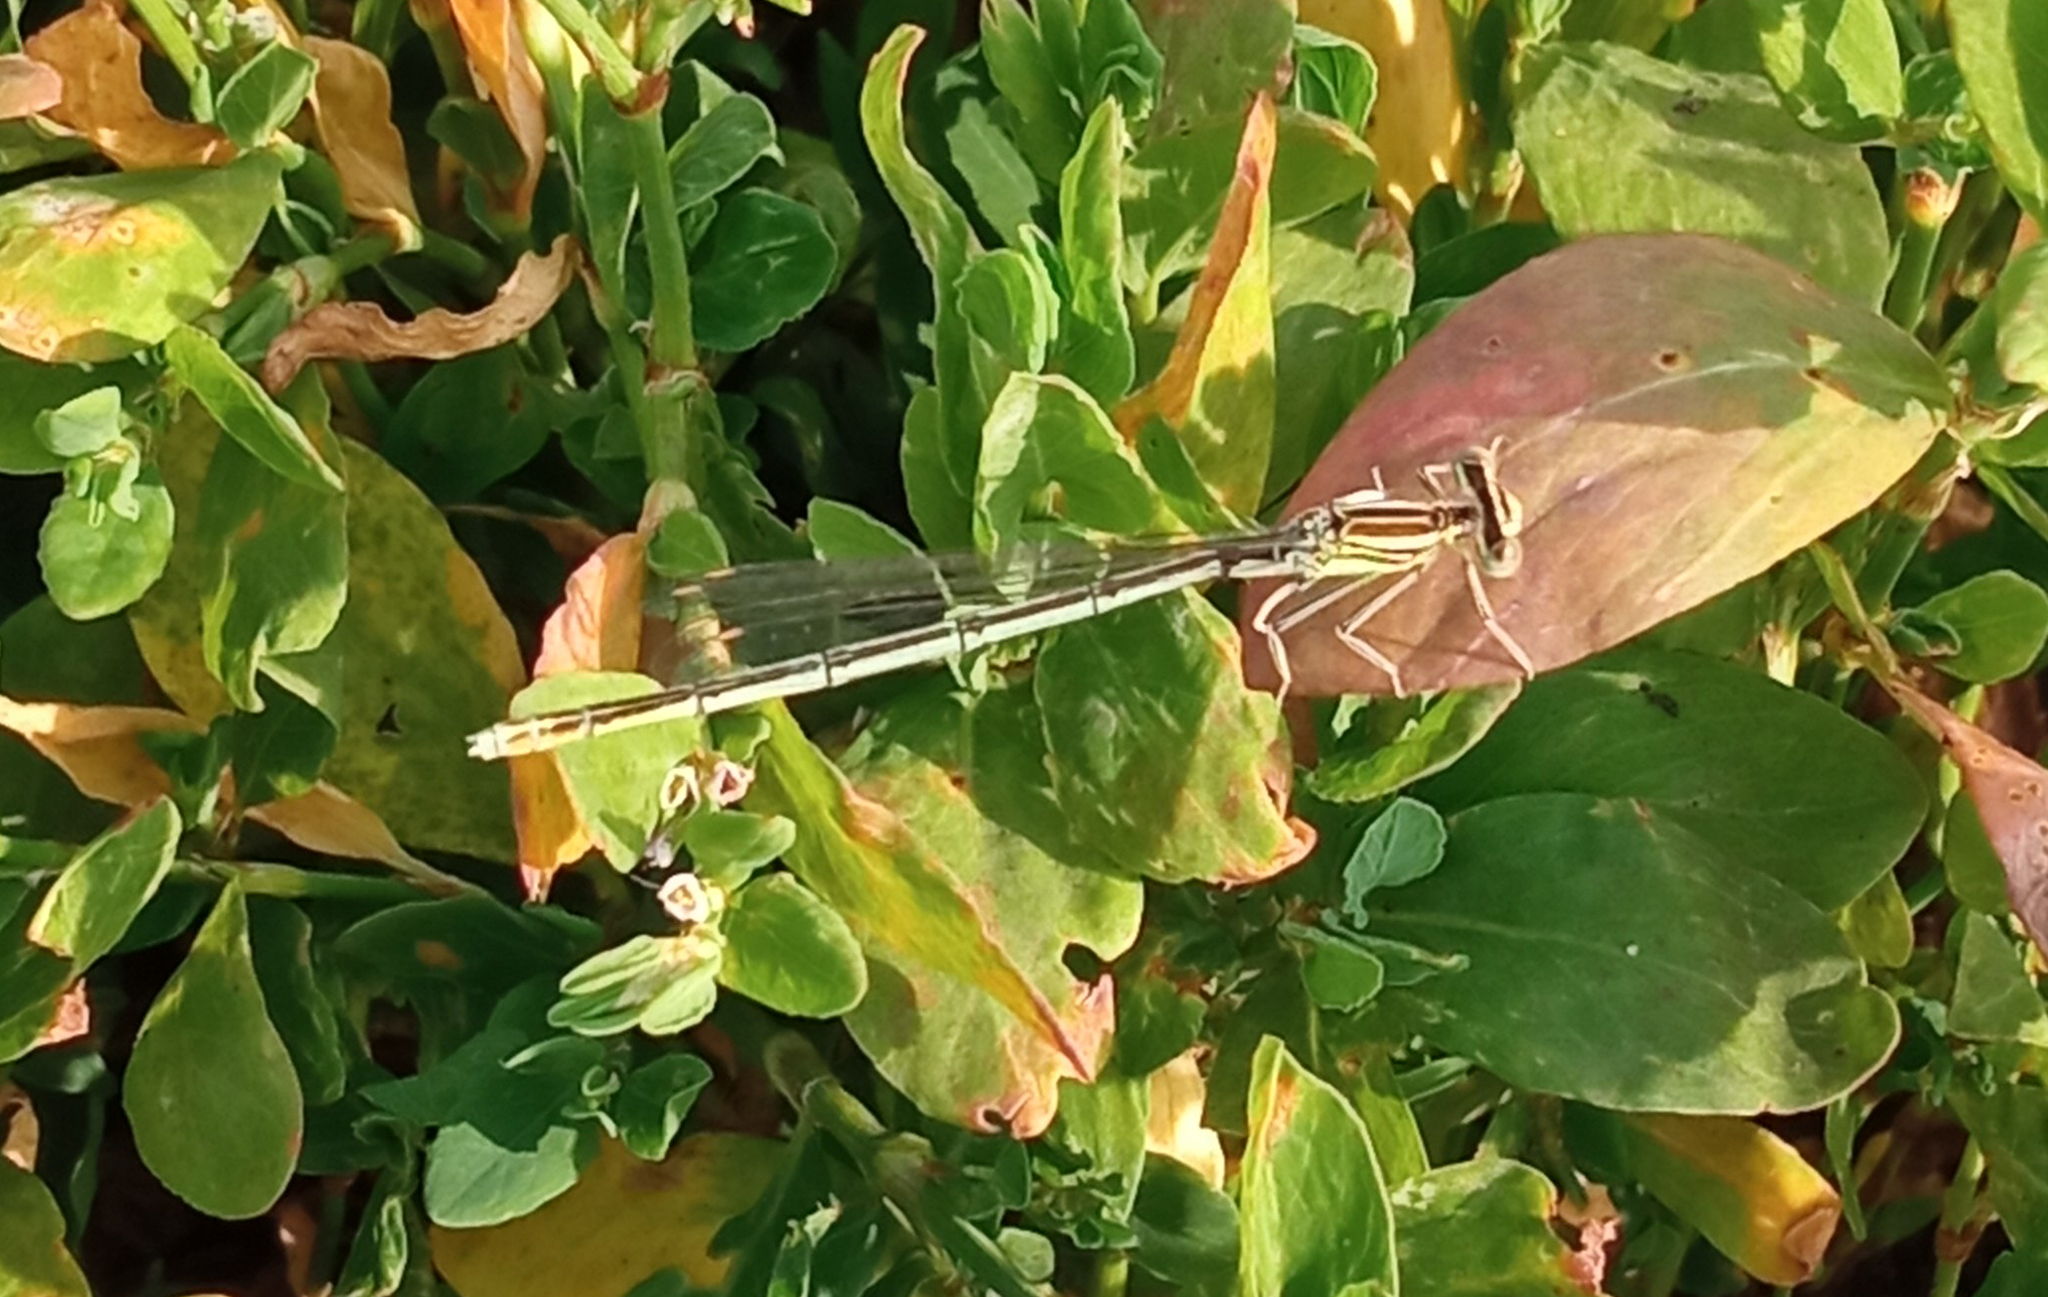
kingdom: Animalia
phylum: Arthropoda
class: Insecta
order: Odonata
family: Platycnemididae
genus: Platycnemis
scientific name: Platycnemis pennipes
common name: White-legged damselfly
